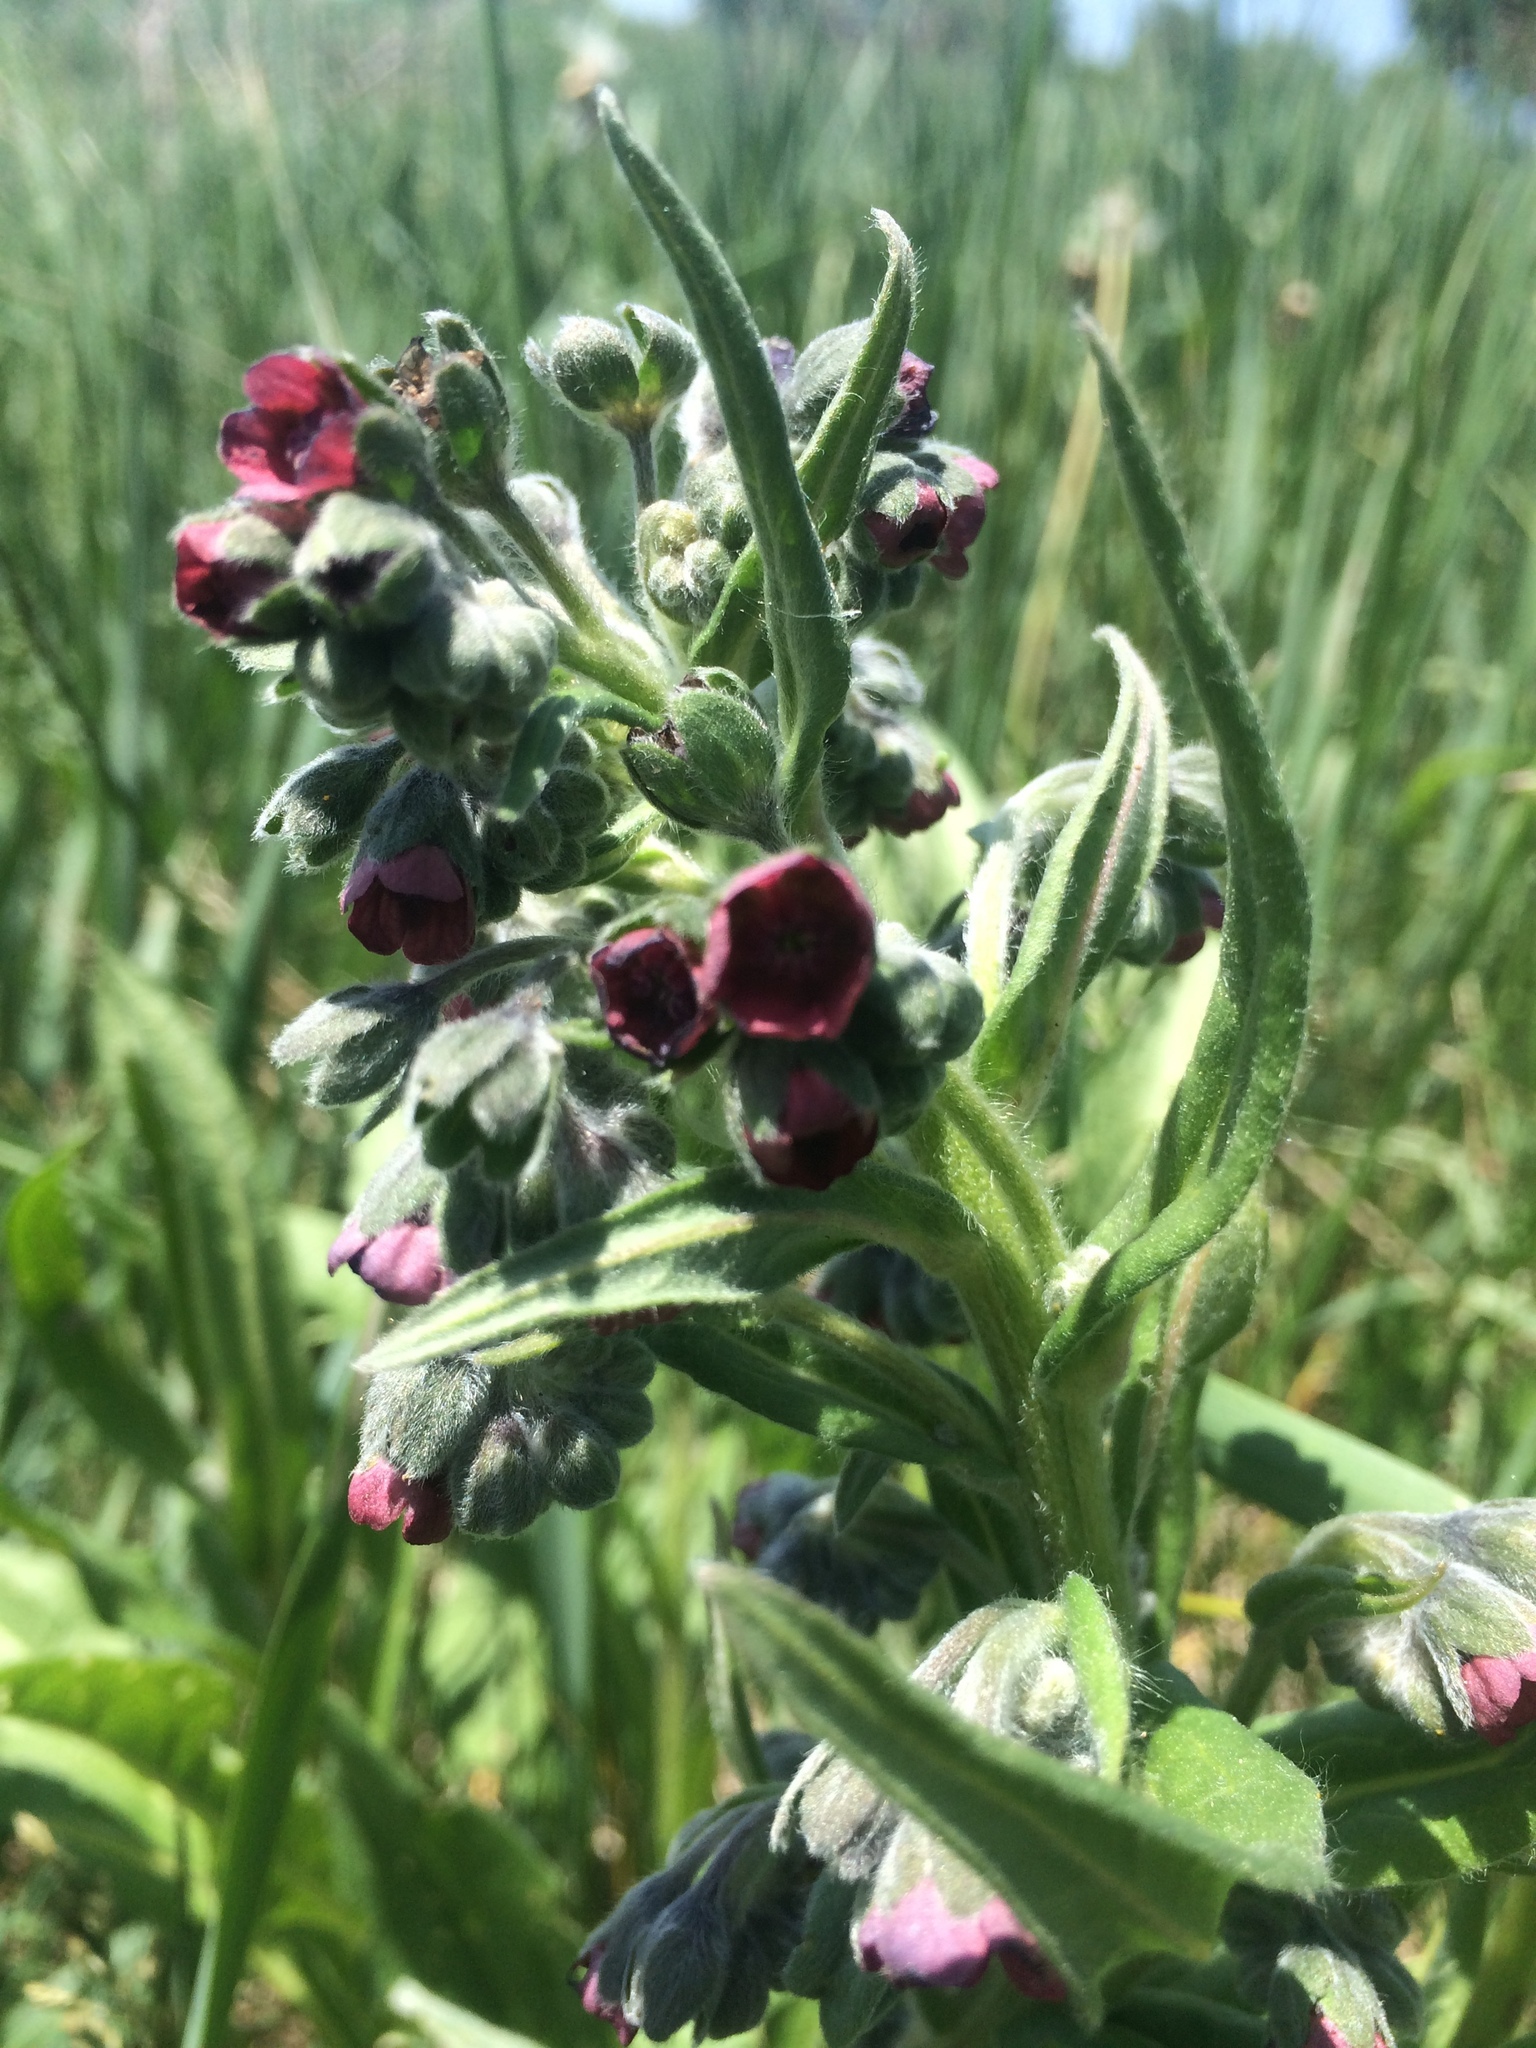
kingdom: Plantae
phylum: Tracheophyta
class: Magnoliopsida
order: Boraginales
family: Boraginaceae
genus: Cynoglossum
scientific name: Cynoglossum officinale
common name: Hound's-tongue
